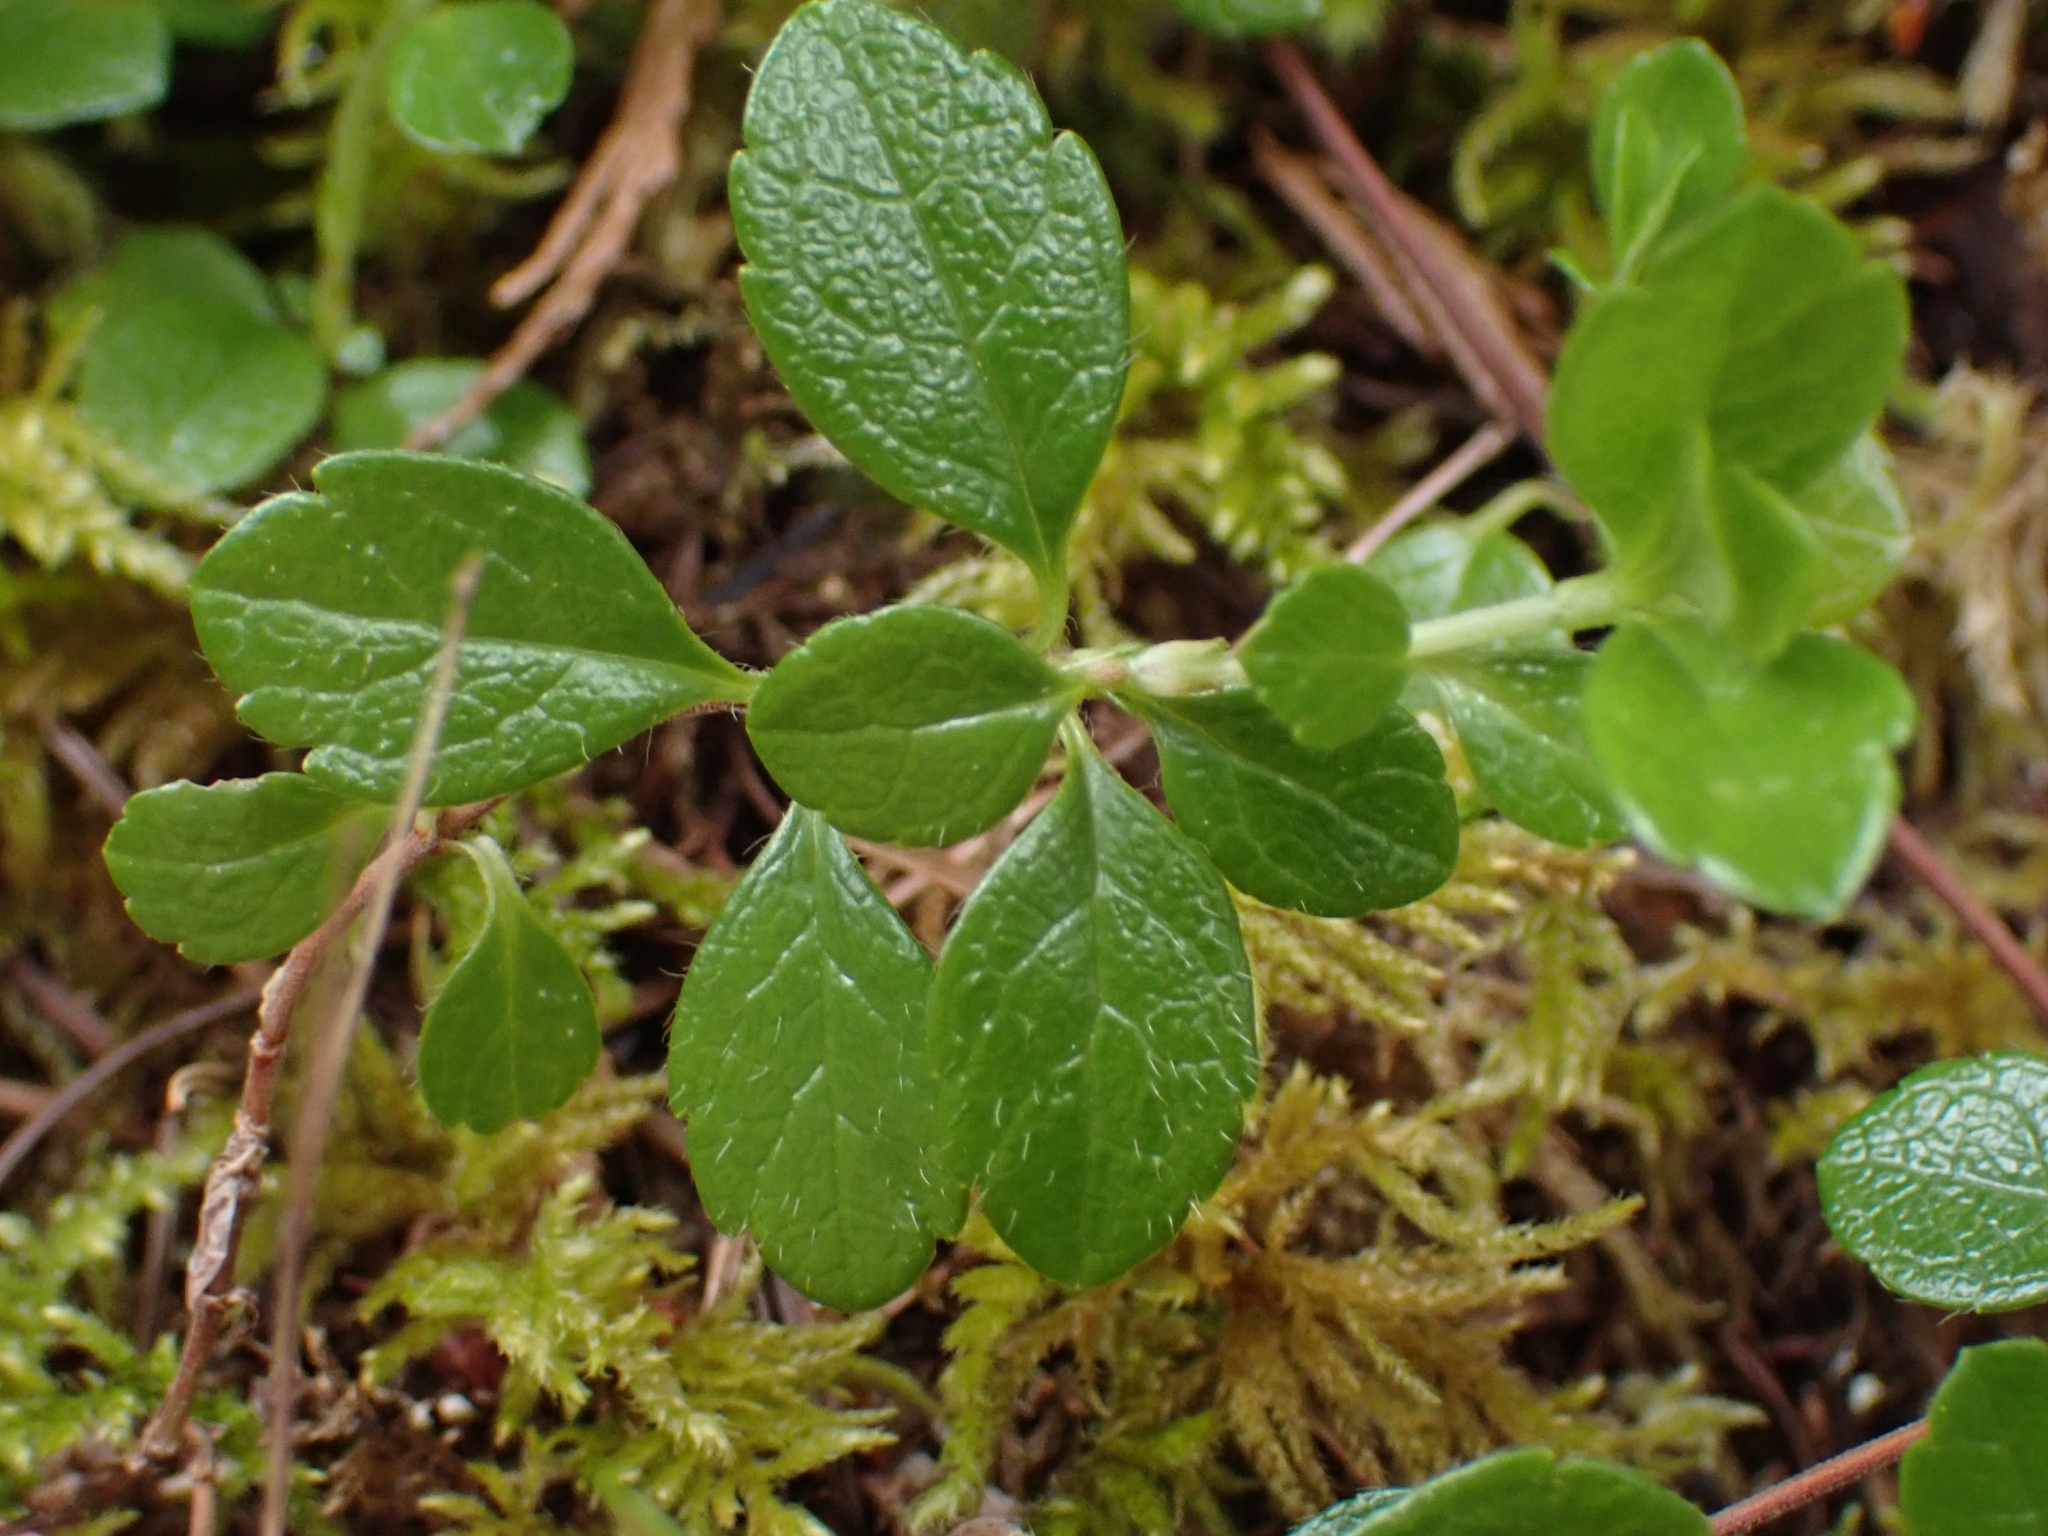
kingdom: Plantae
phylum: Tracheophyta
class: Magnoliopsida
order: Dipsacales
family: Caprifoliaceae
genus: Linnaea
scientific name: Linnaea borealis
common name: Twinflower
